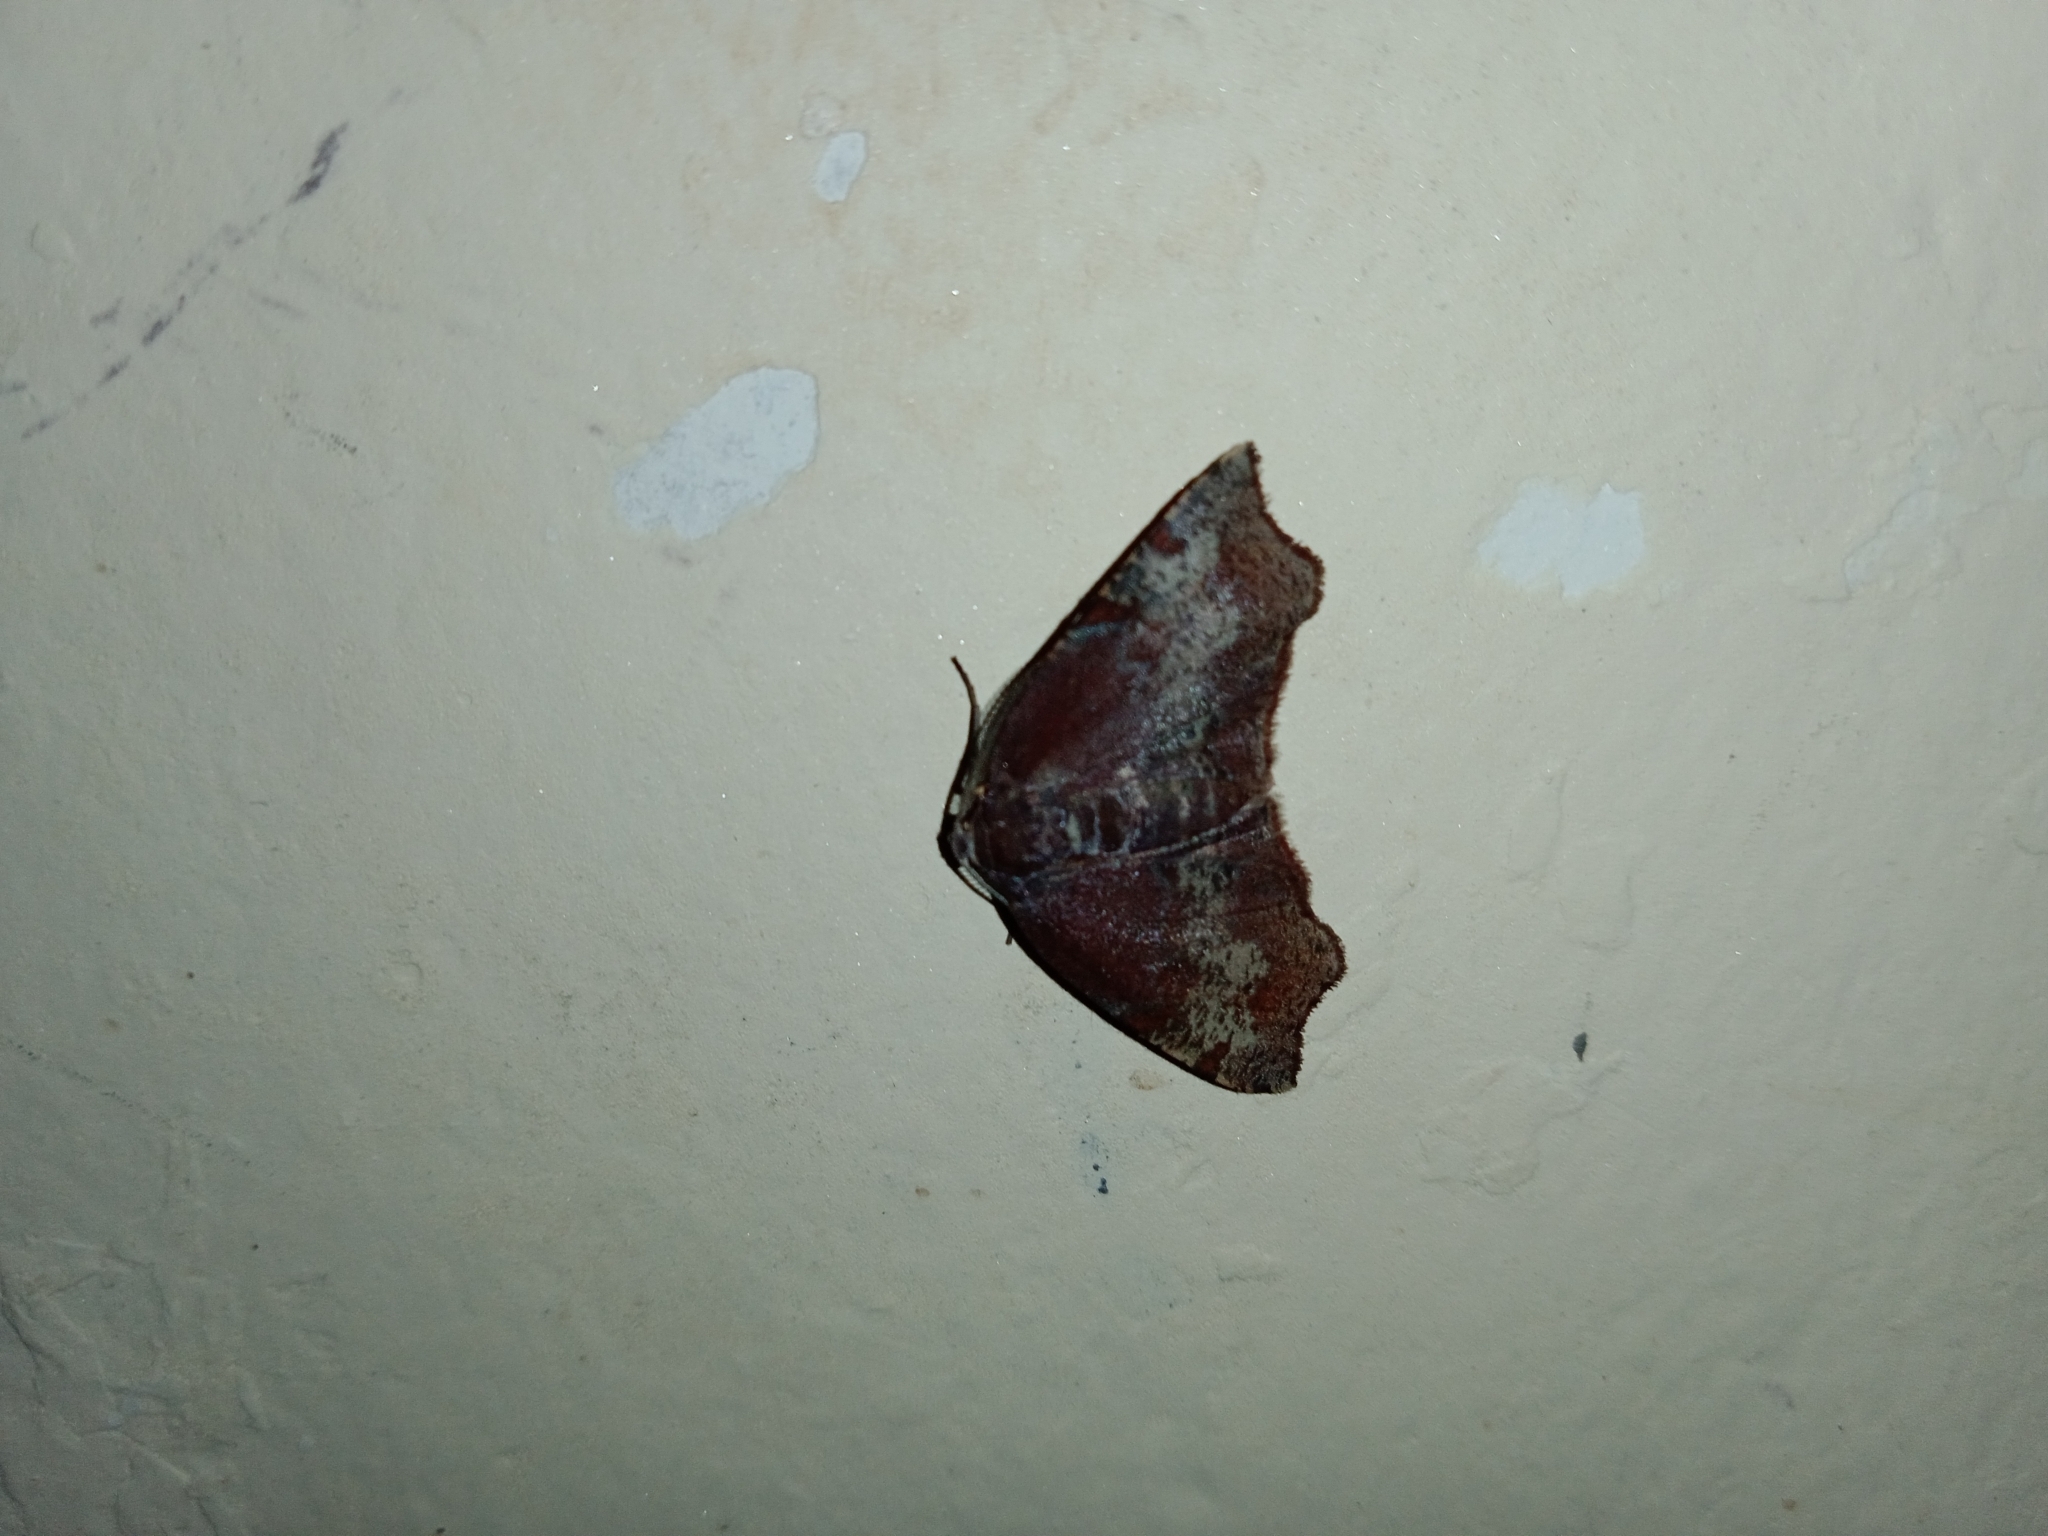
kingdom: Animalia
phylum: Arthropoda
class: Insecta
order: Lepidoptera
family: Geometridae
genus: Achrosis
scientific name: Achrosis rondelaria
